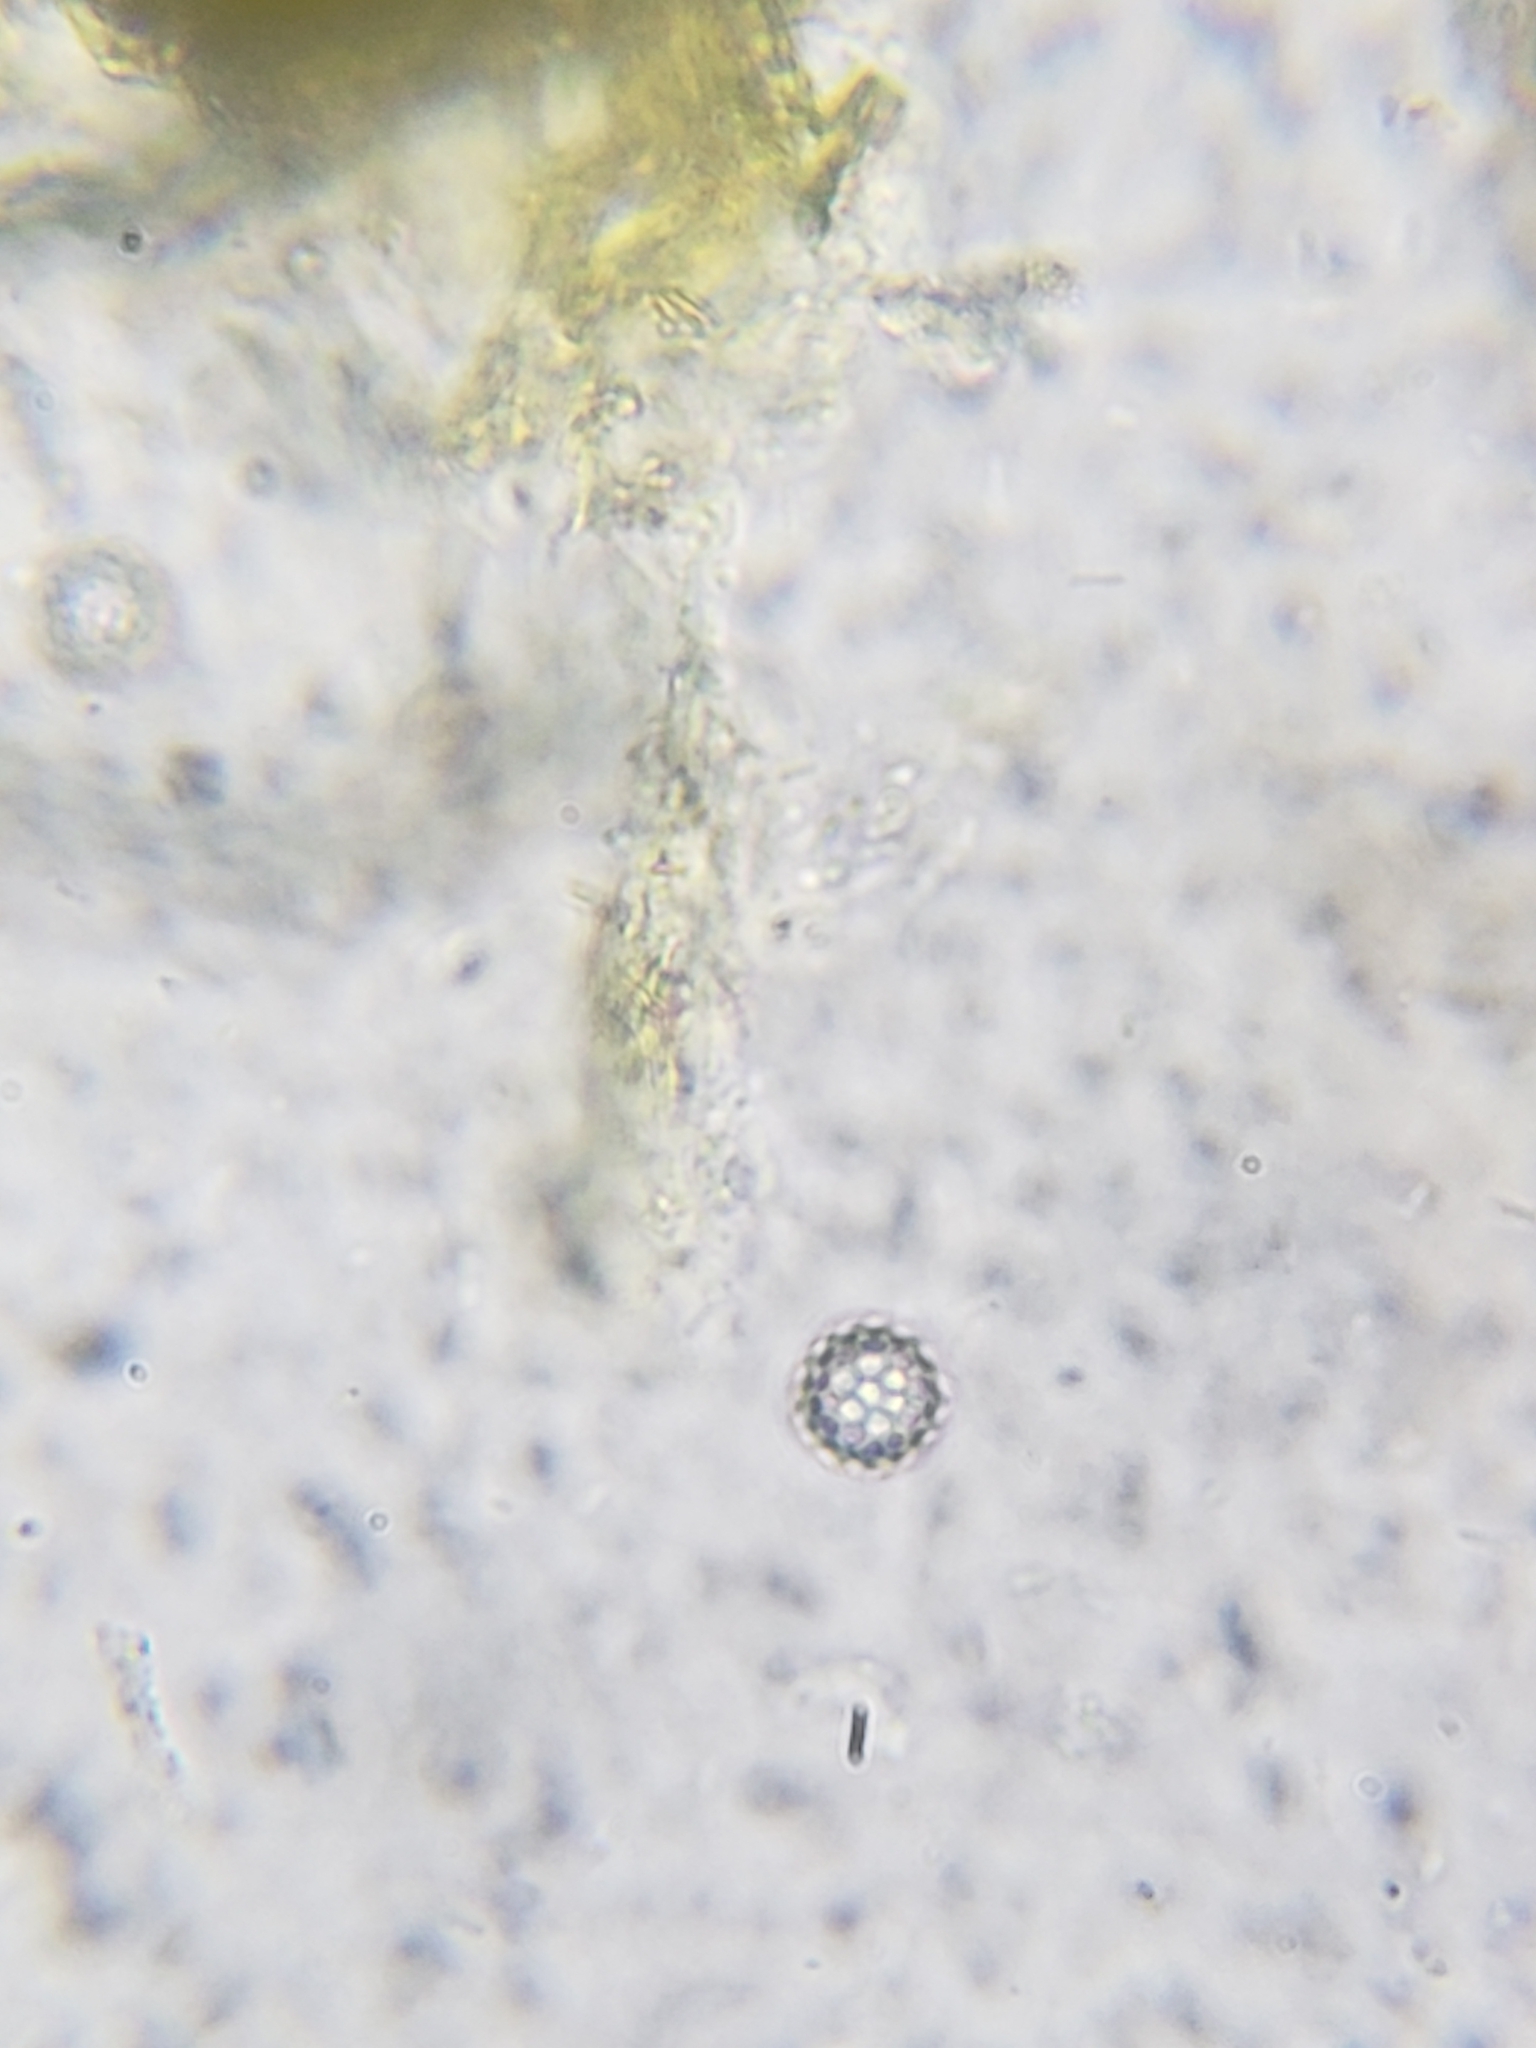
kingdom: Fungi
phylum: Basidiomycota
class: Agaricomycetes
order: Boletales
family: Calostomataceae
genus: Calostoma
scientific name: Calostoma lutescens
